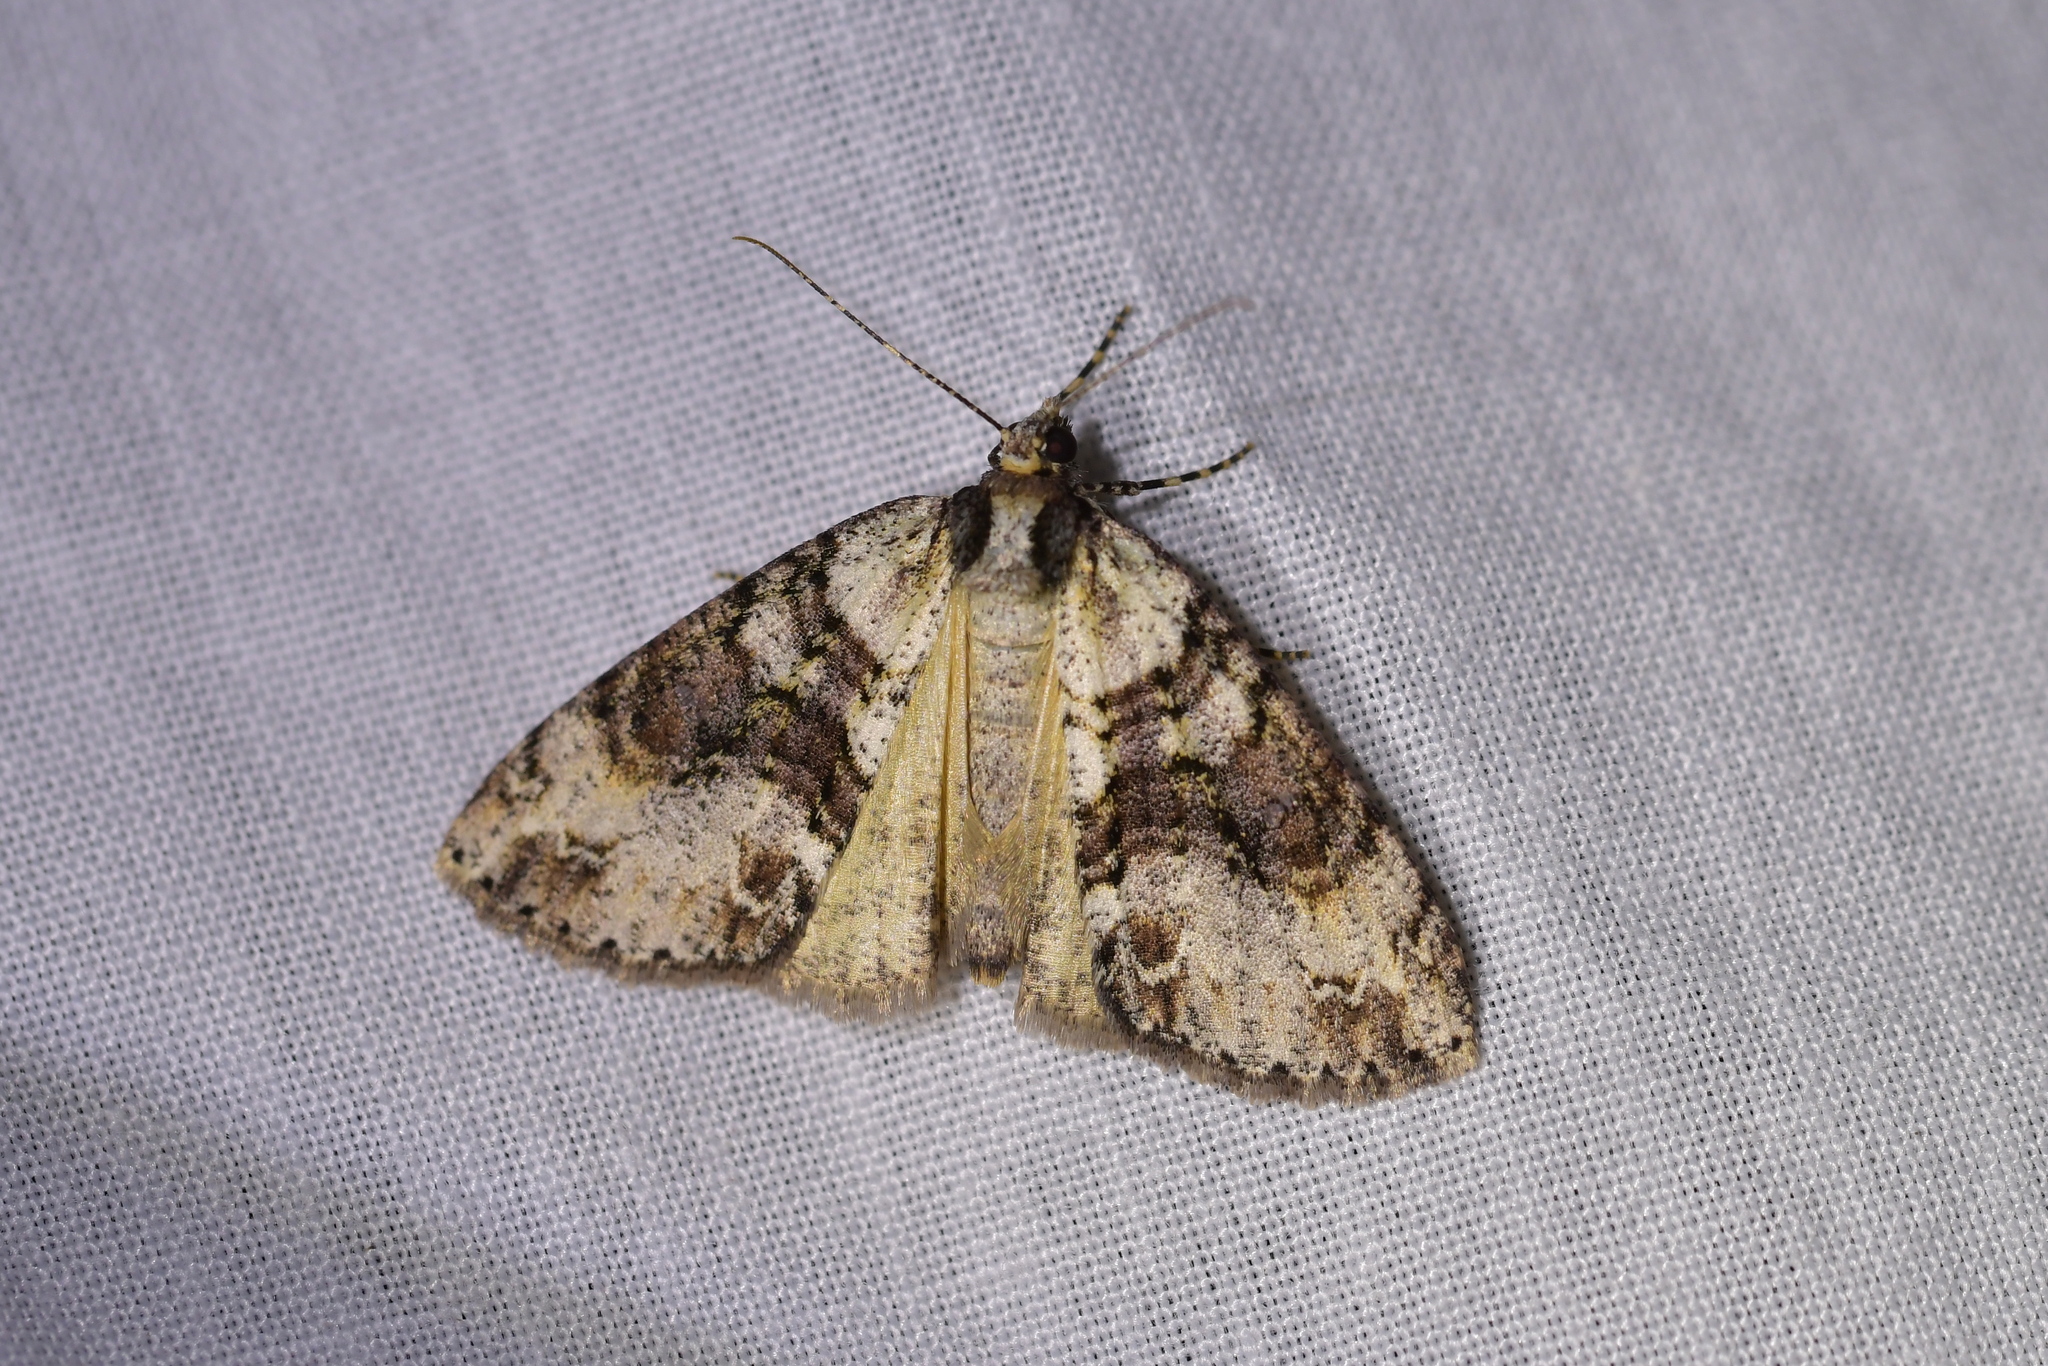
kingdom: Animalia
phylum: Arthropoda
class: Insecta
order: Lepidoptera
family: Geometridae
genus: Pseudocoremia
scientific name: Pseudocoremia suavis
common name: Common forest looper
